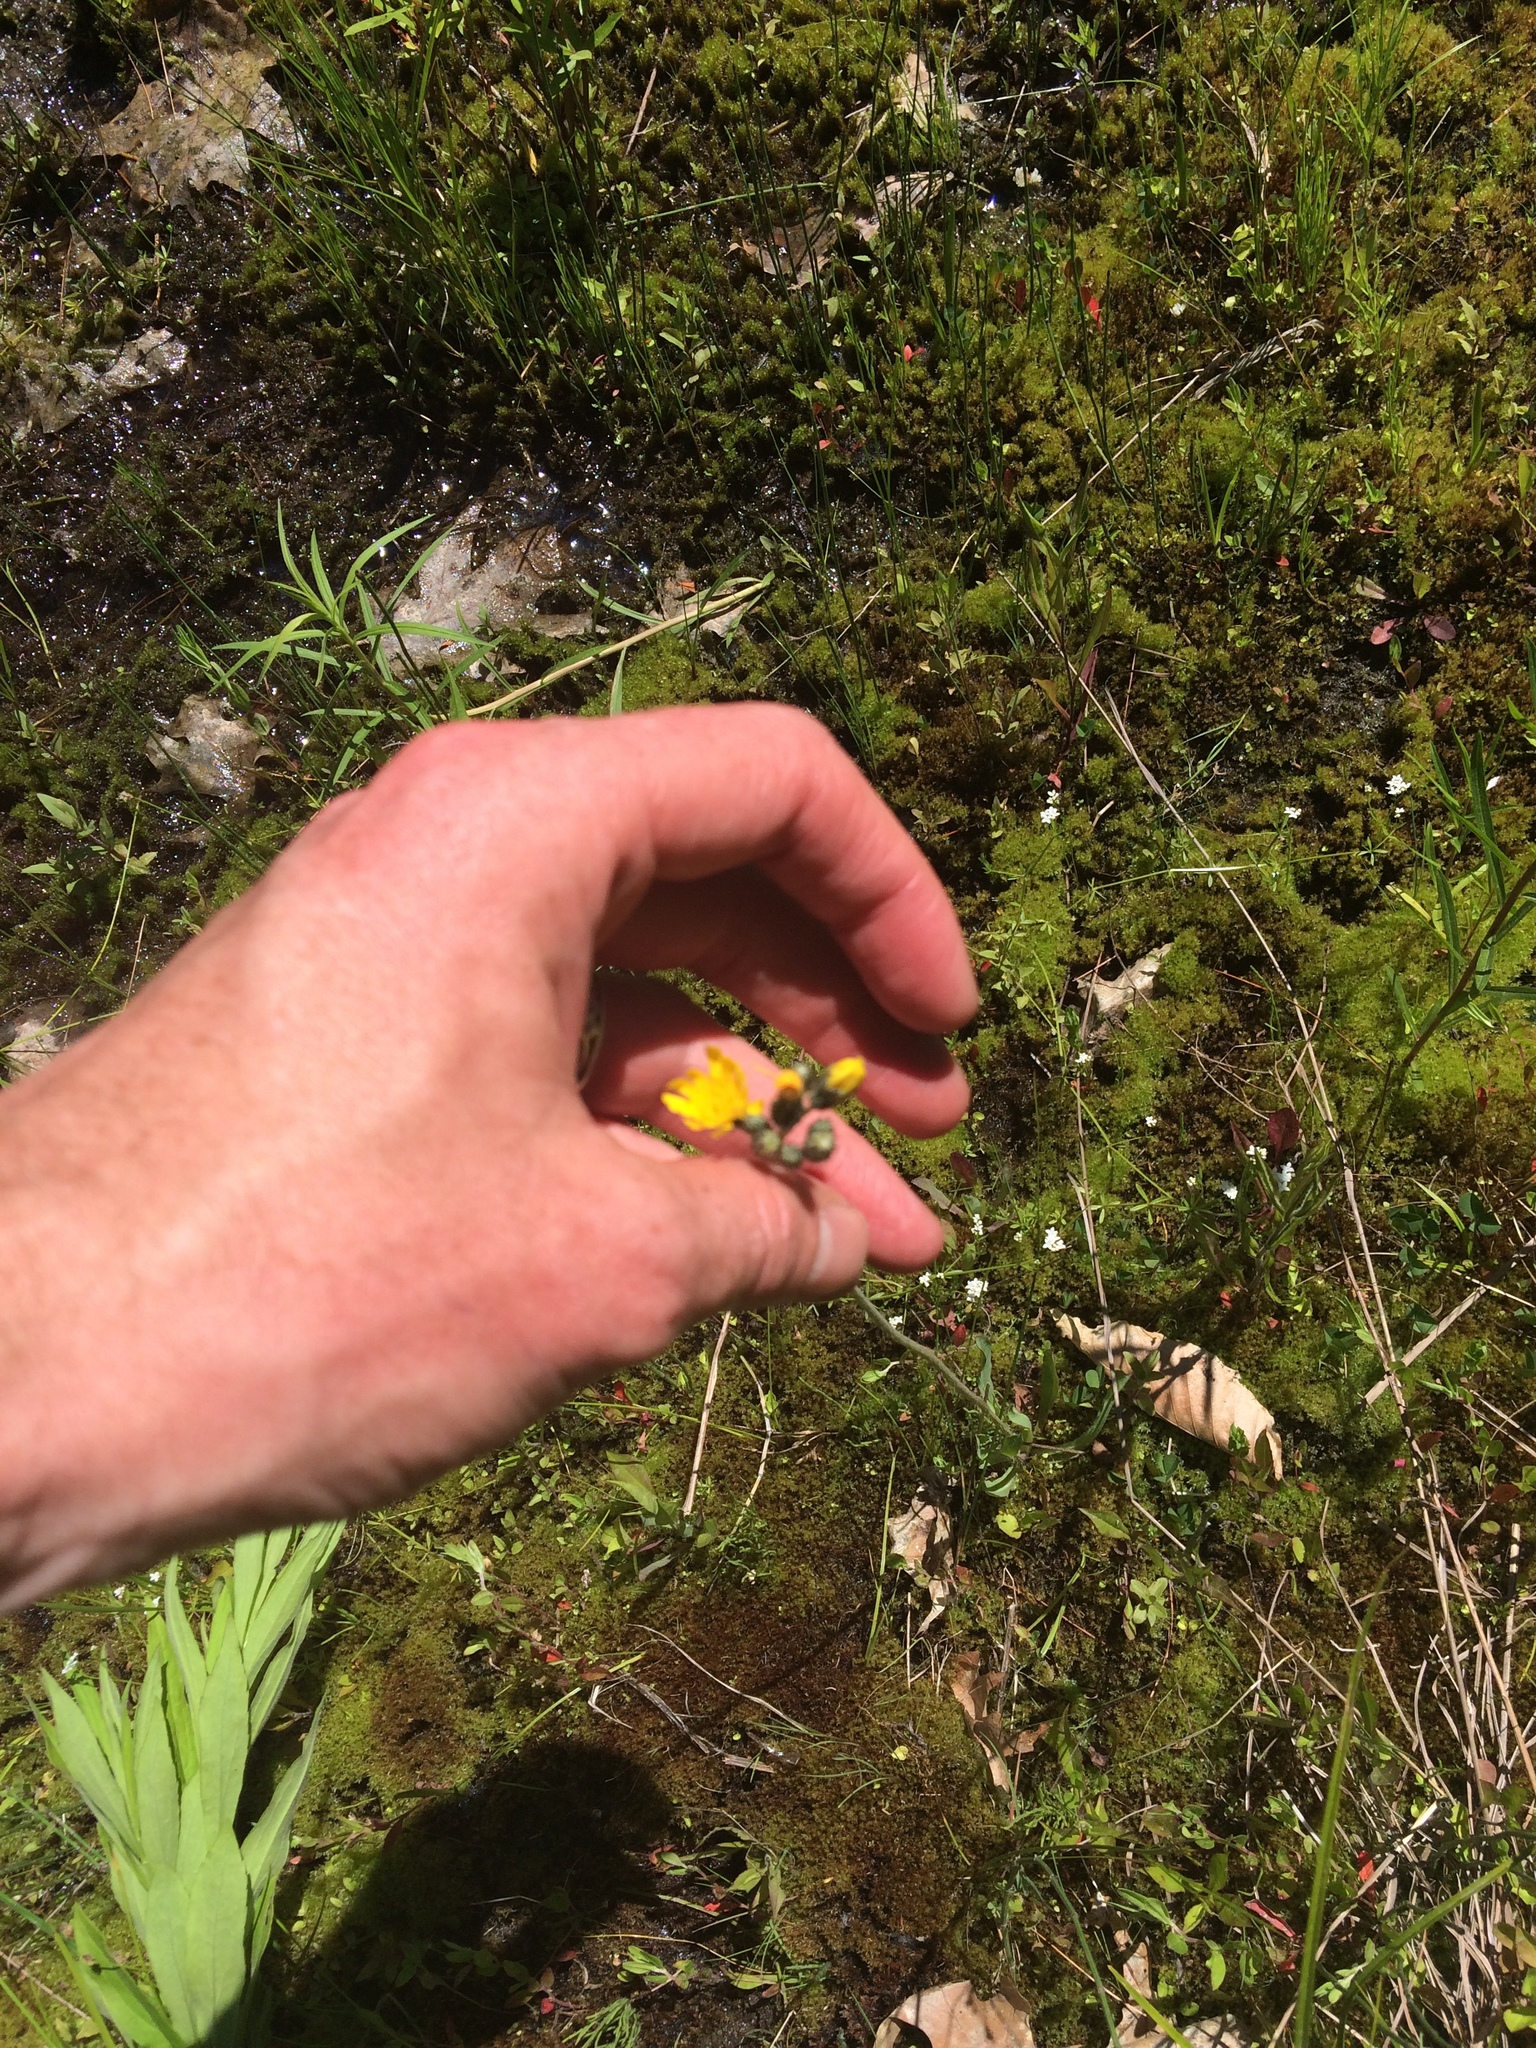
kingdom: Plantae
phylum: Tracheophyta
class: Magnoliopsida
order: Asterales
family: Asteraceae
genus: Pilosella
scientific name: Pilosella caespitosa
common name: Yellow fox-and-cubs
